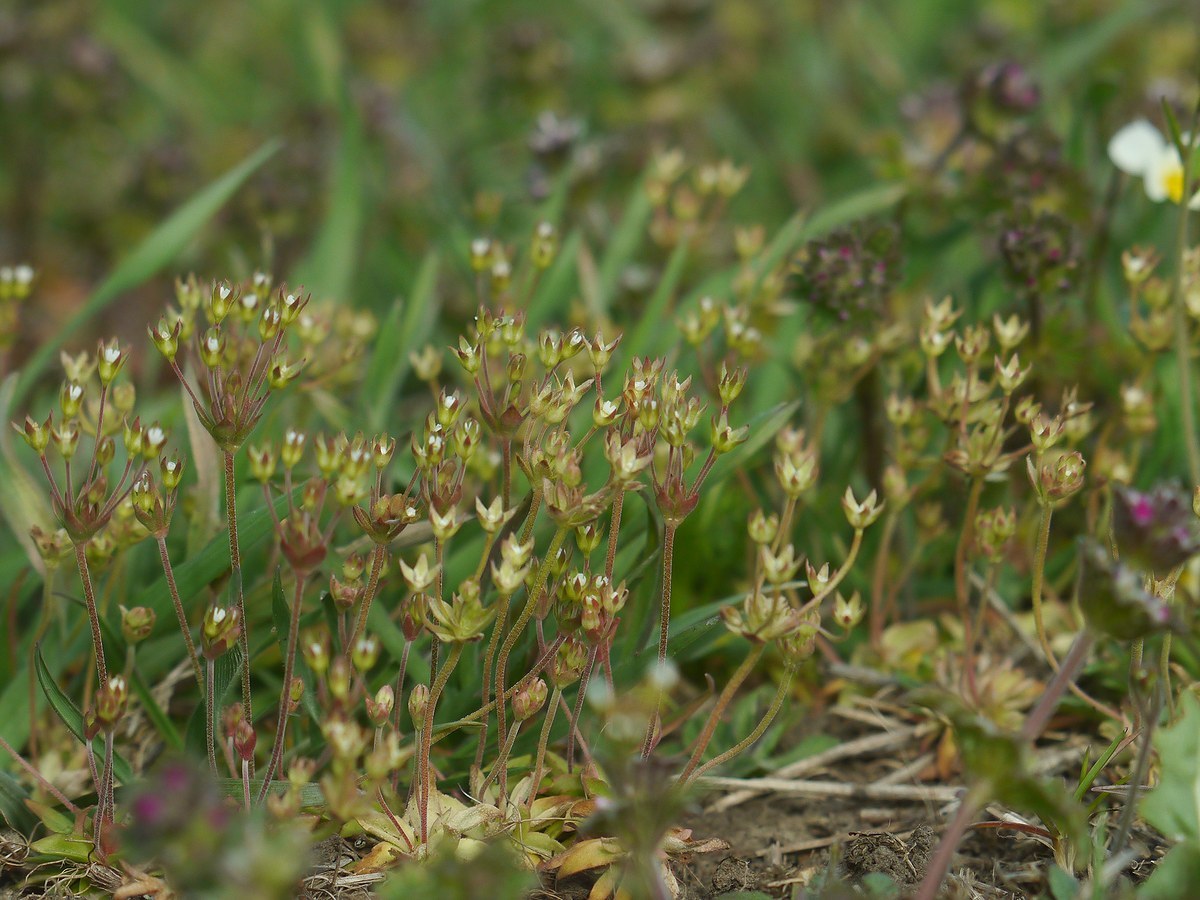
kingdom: Plantae
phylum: Tracheophyta
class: Magnoliopsida
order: Ericales
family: Primulaceae
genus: Androsace
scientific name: Androsace elongata
